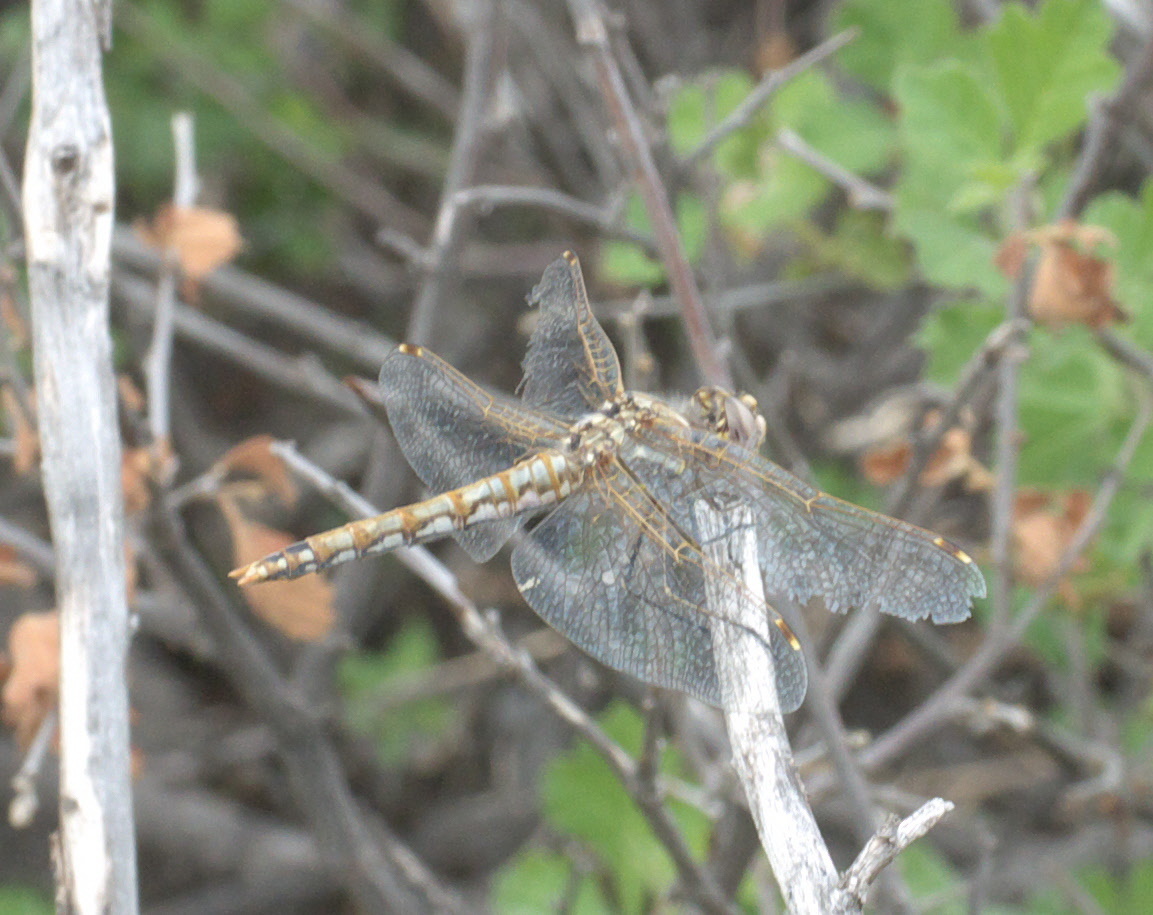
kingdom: Animalia
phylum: Arthropoda
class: Insecta
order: Odonata
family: Libellulidae
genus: Sympetrum
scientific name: Sympetrum corruptum
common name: Variegated meadowhawk
